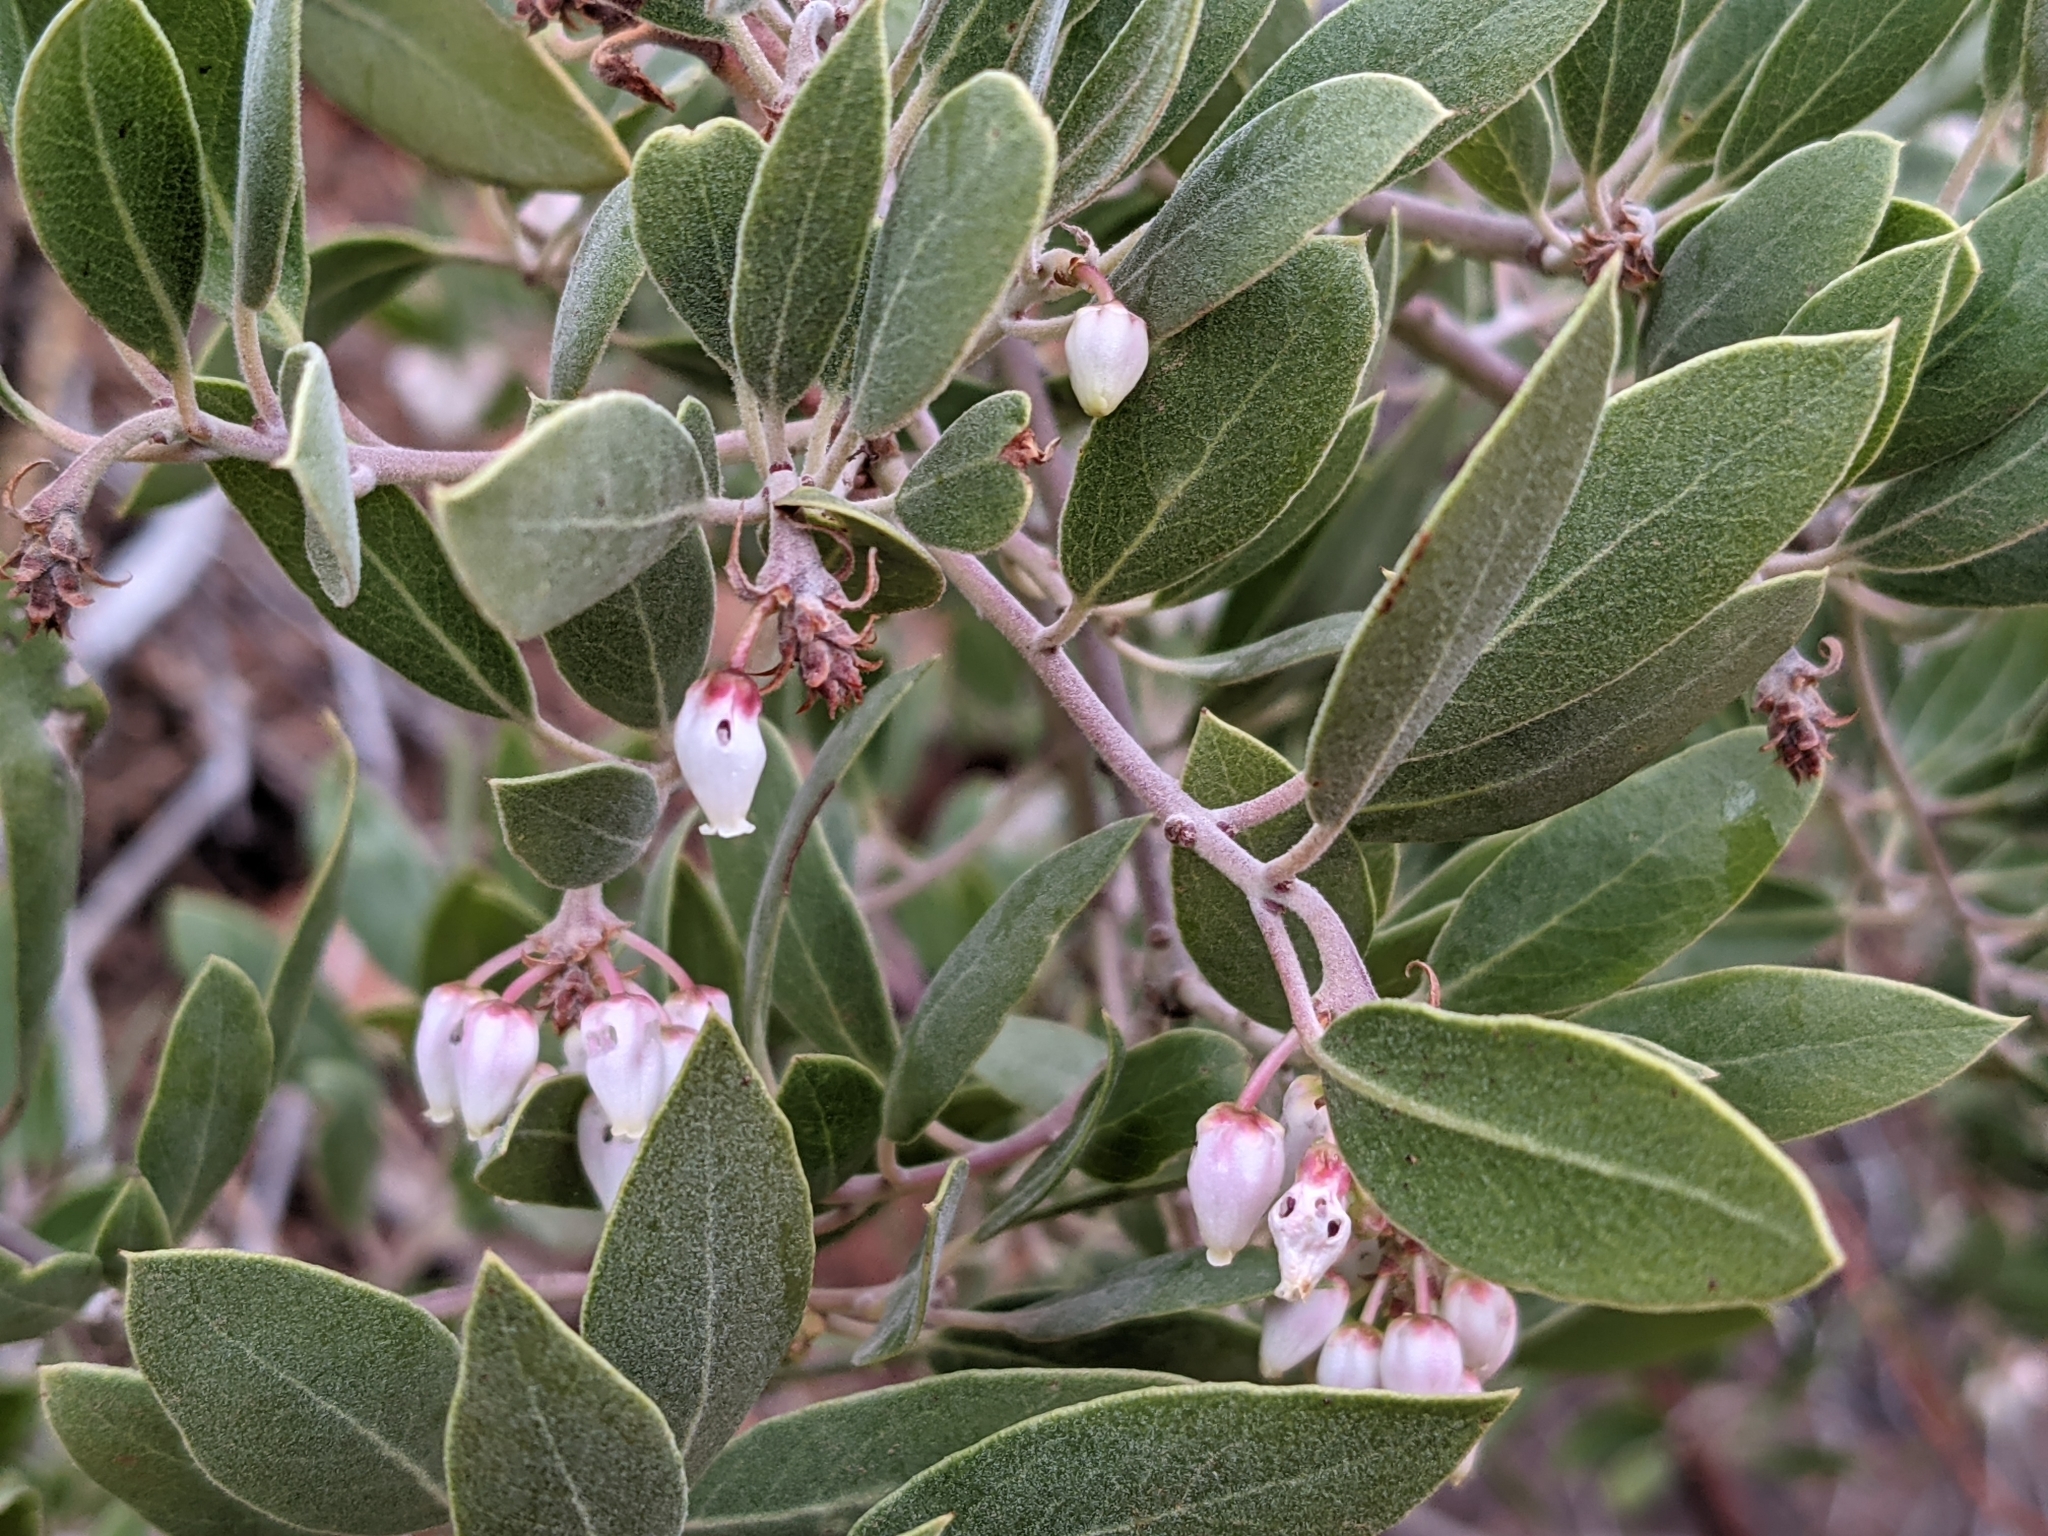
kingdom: Plantae
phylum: Tracheophyta
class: Magnoliopsida
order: Ericales
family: Ericaceae
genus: Arctostaphylos
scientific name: Arctostaphylos pungens
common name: Mexican manzanita
